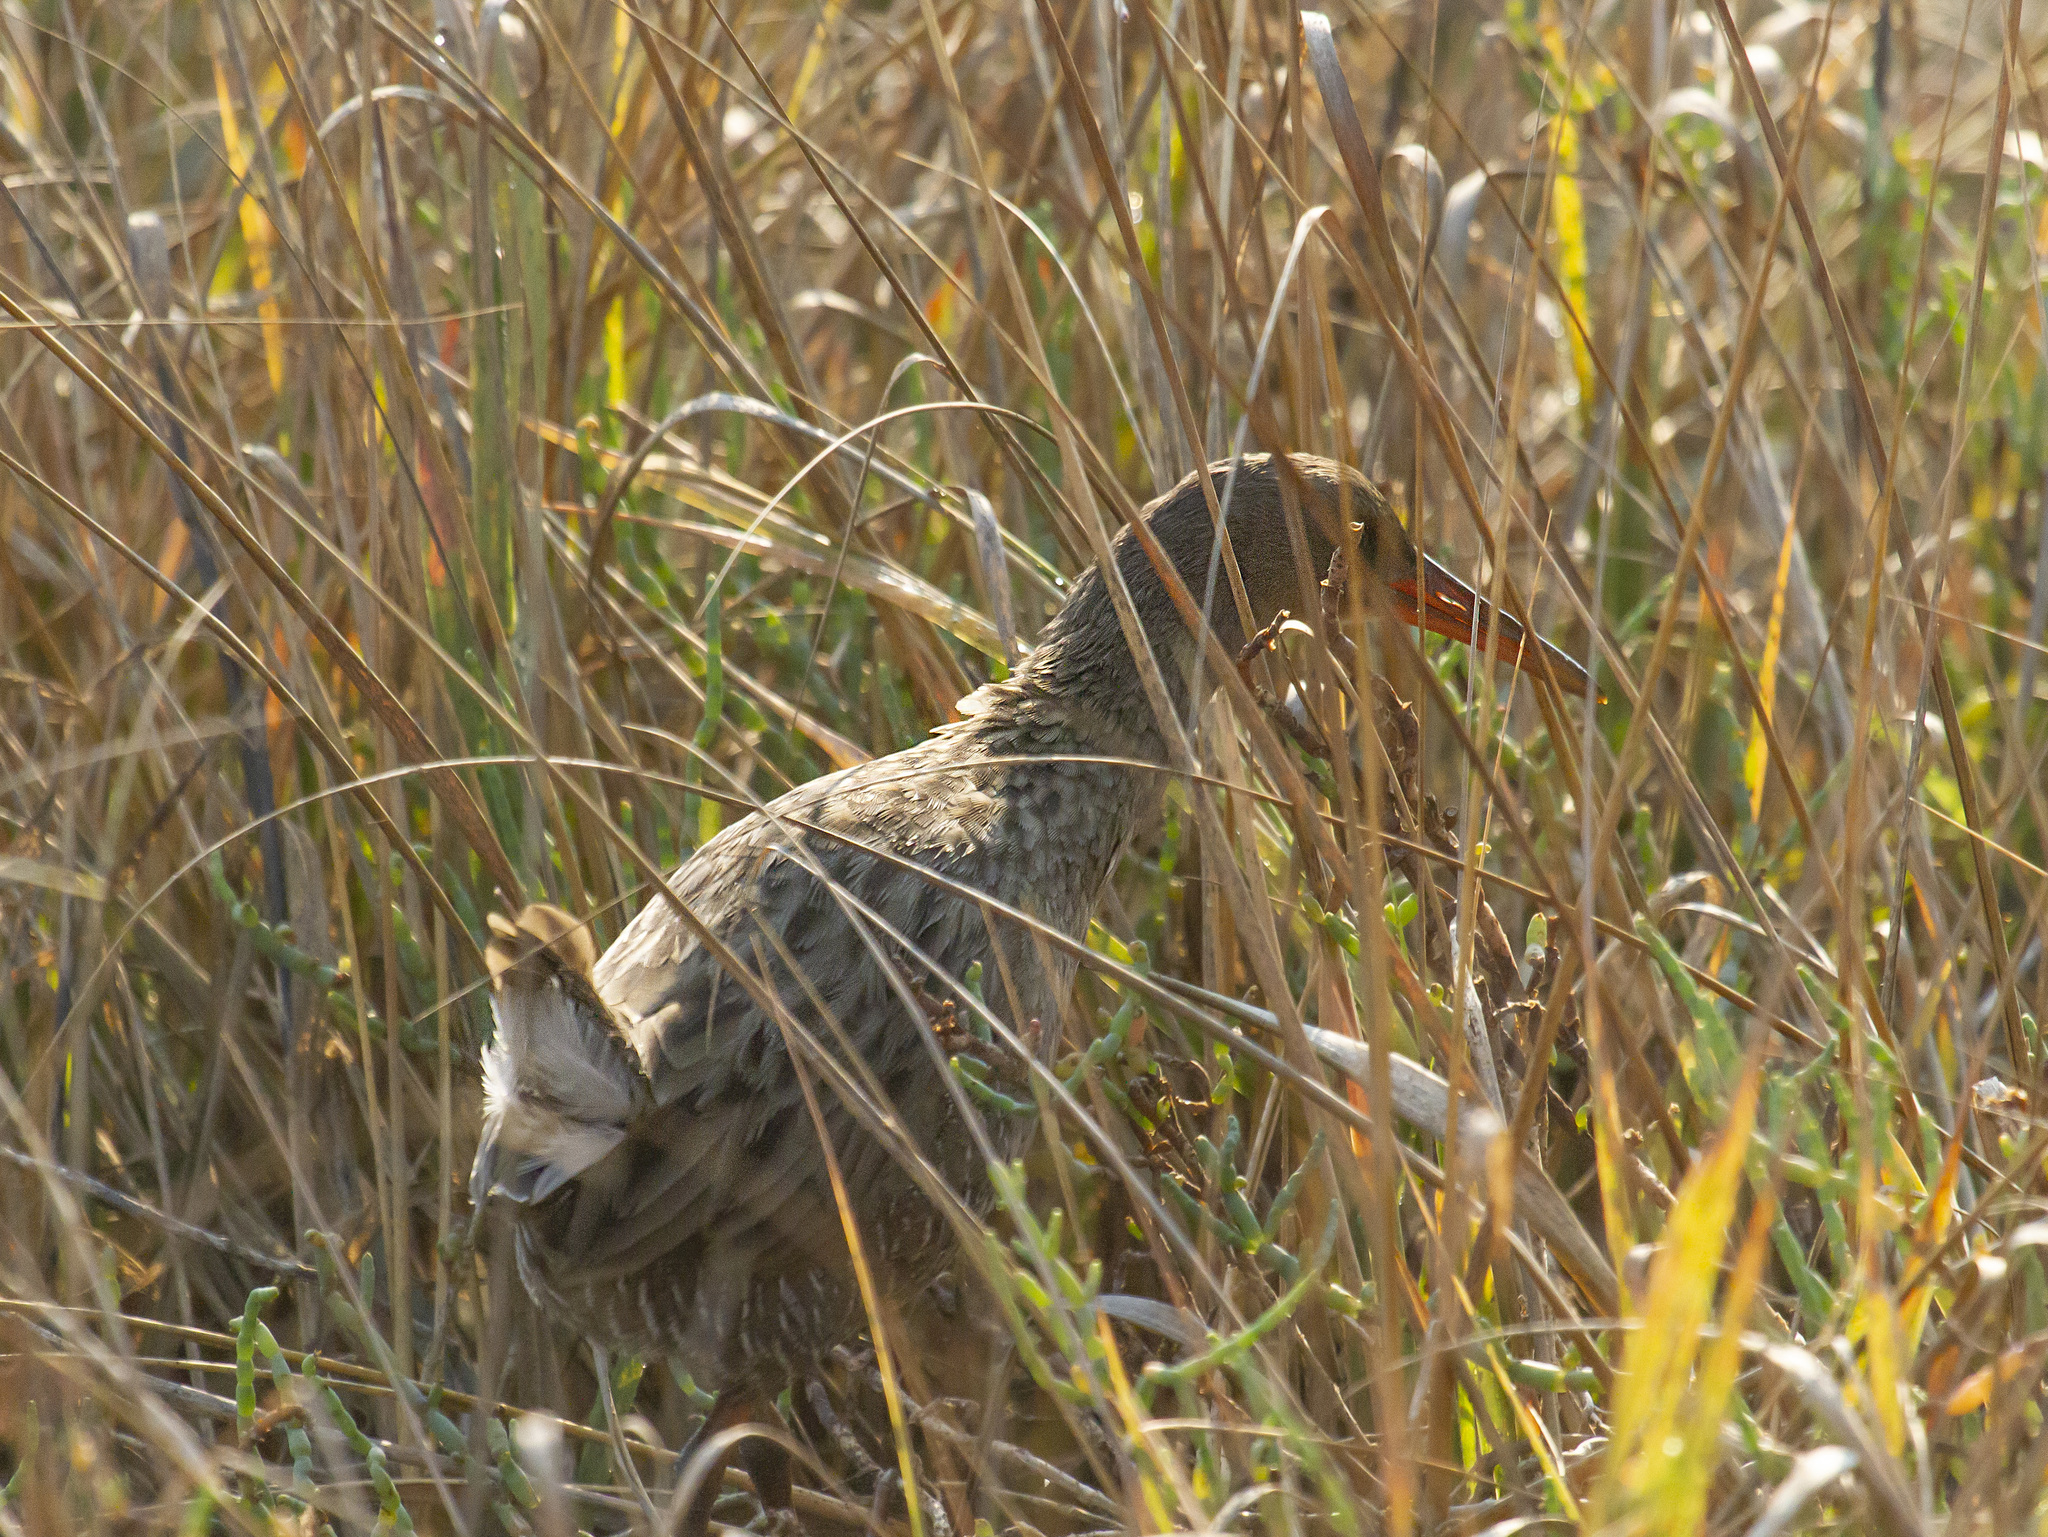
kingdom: Animalia
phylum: Chordata
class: Aves
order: Gruiformes
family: Rallidae
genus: Rallus
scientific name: Rallus obsoletus
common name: Ridgway's rail
